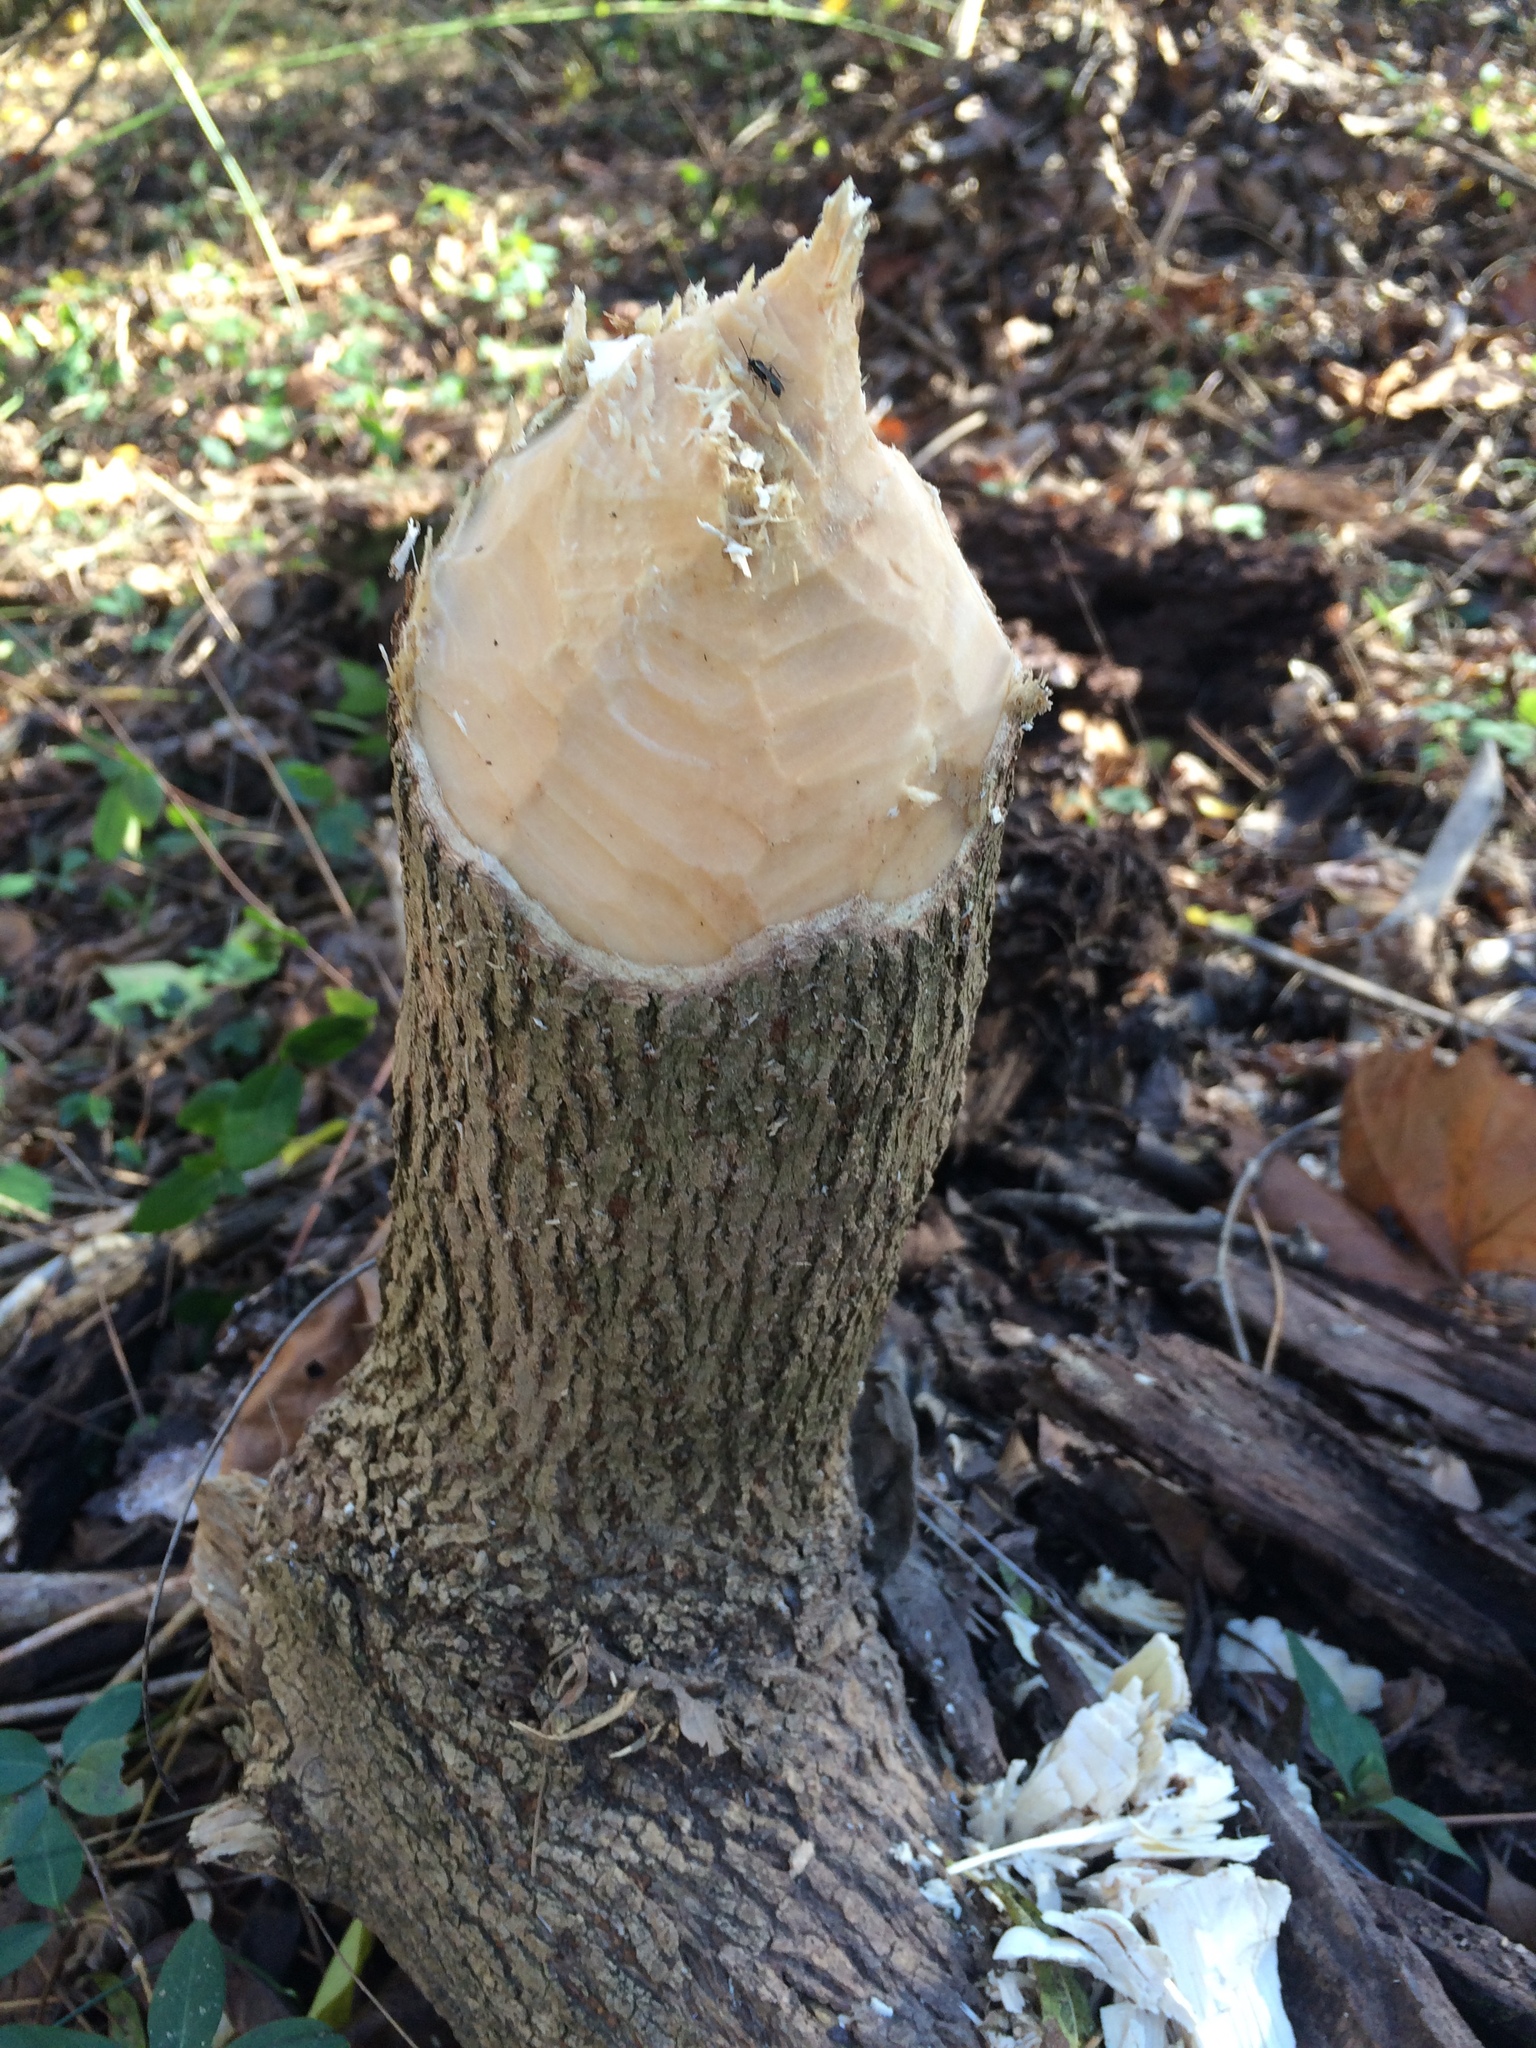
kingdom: Animalia
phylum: Chordata
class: Mammalia
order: Rodentia
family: Castoridae
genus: Castor
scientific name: Castor canadensis
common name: American beaver
